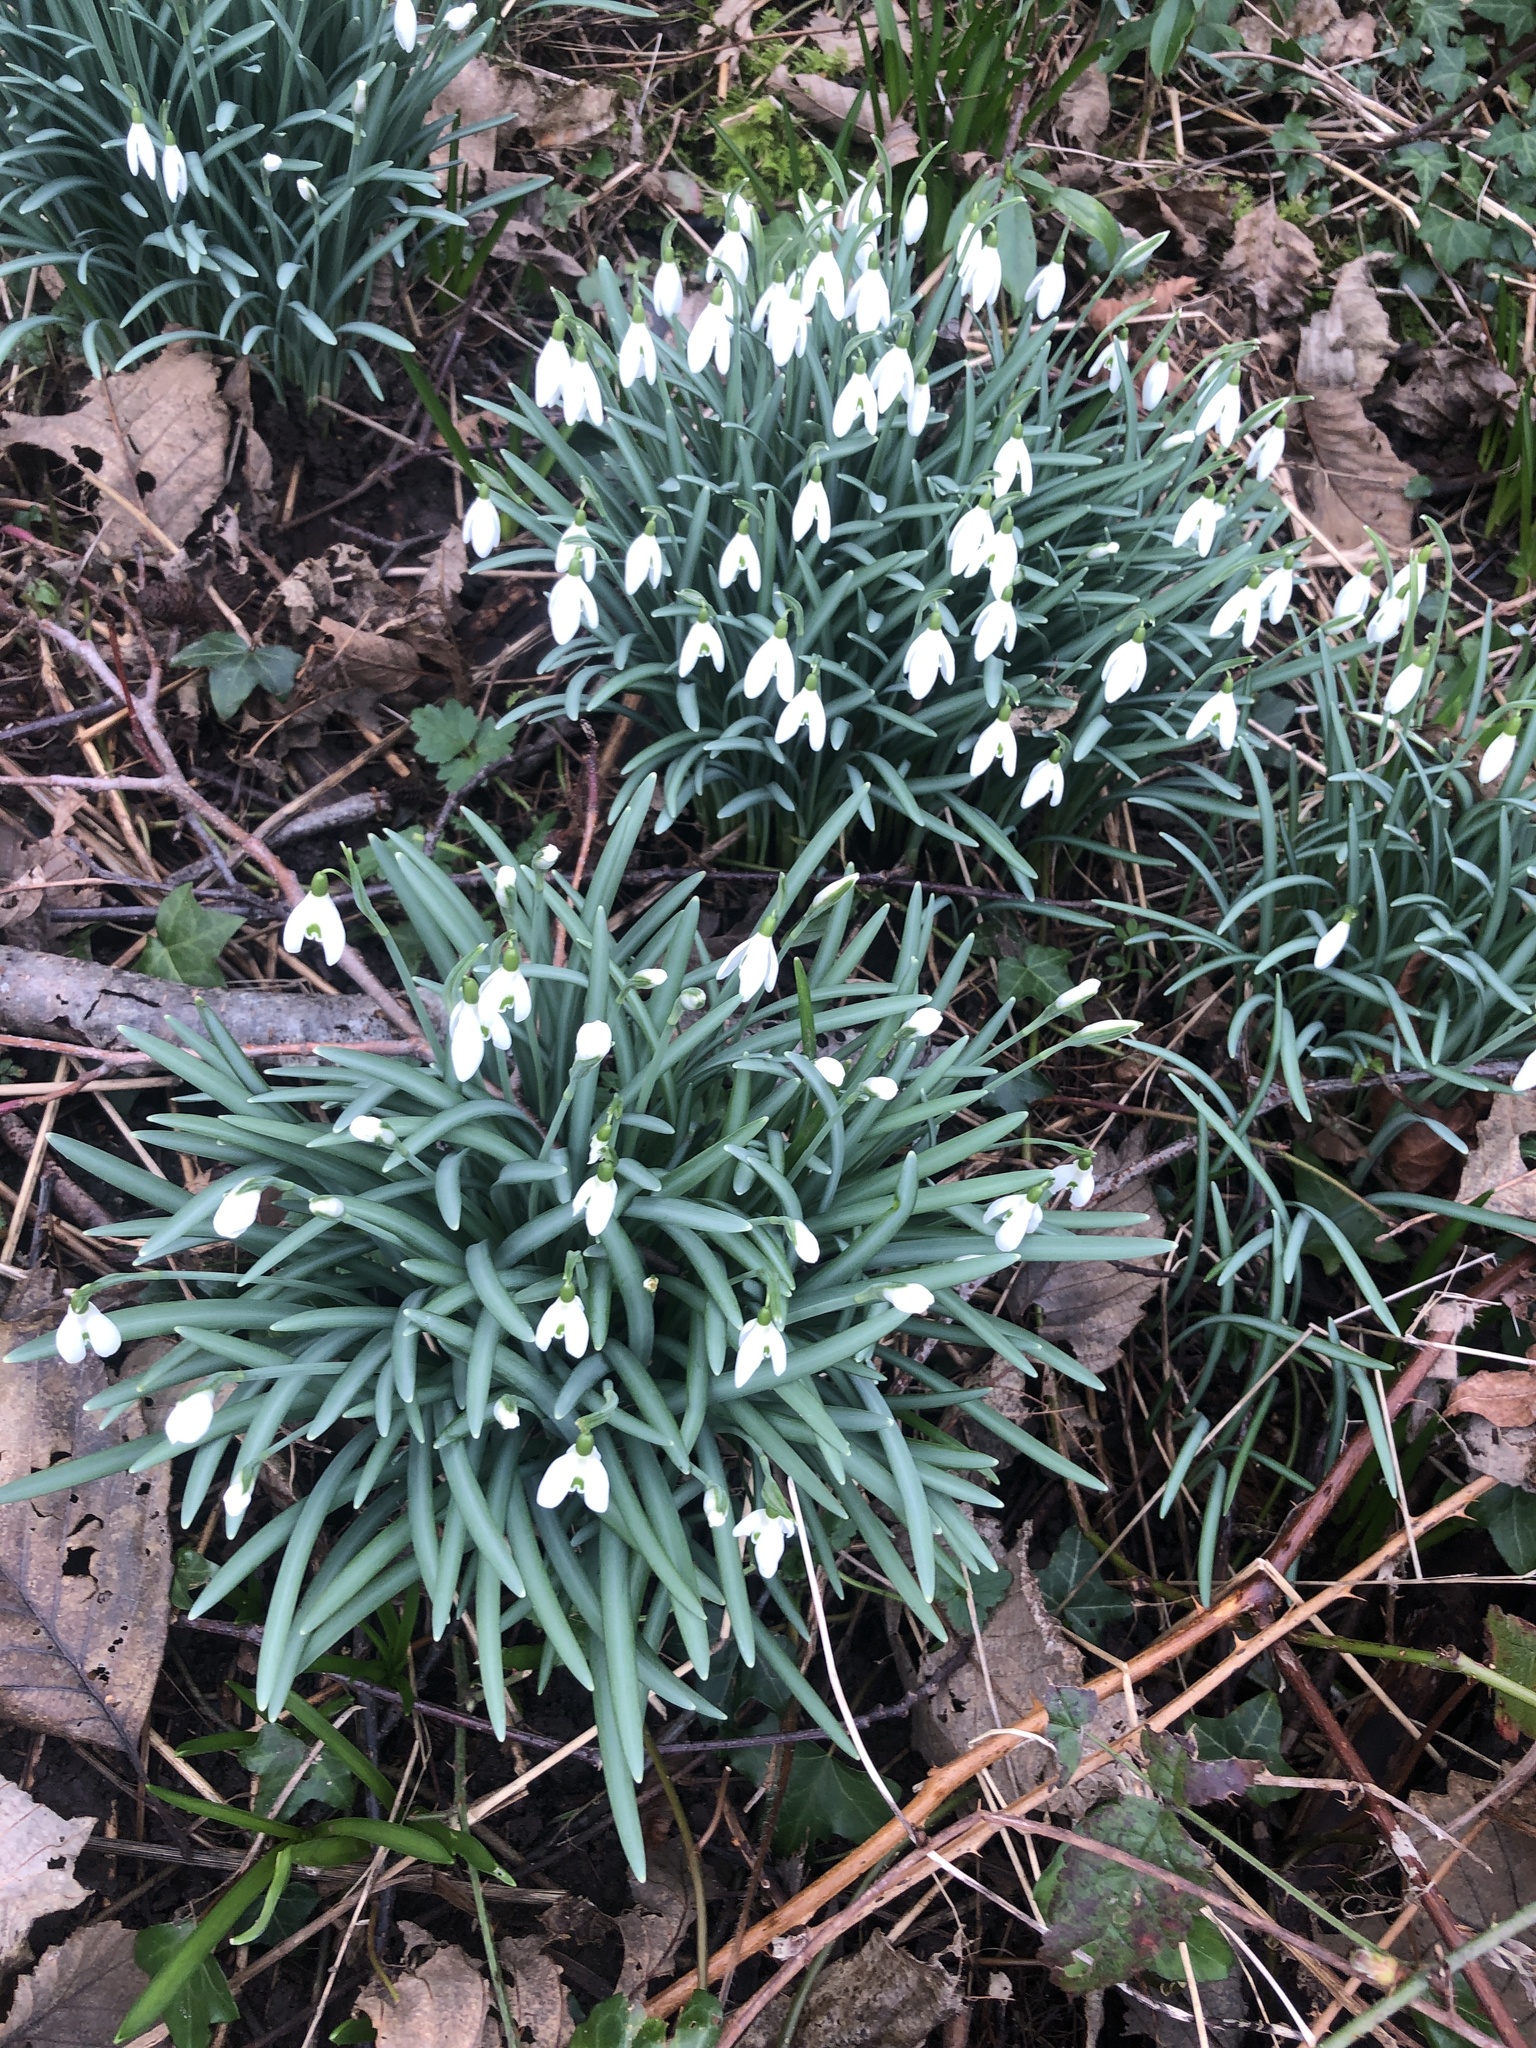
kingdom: Plantae
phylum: Tracheophyta
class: Liliopsida
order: Asparagales
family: Amaryllidaceae
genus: Galanthus
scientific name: Galanthus nivalis
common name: Snowdrop
